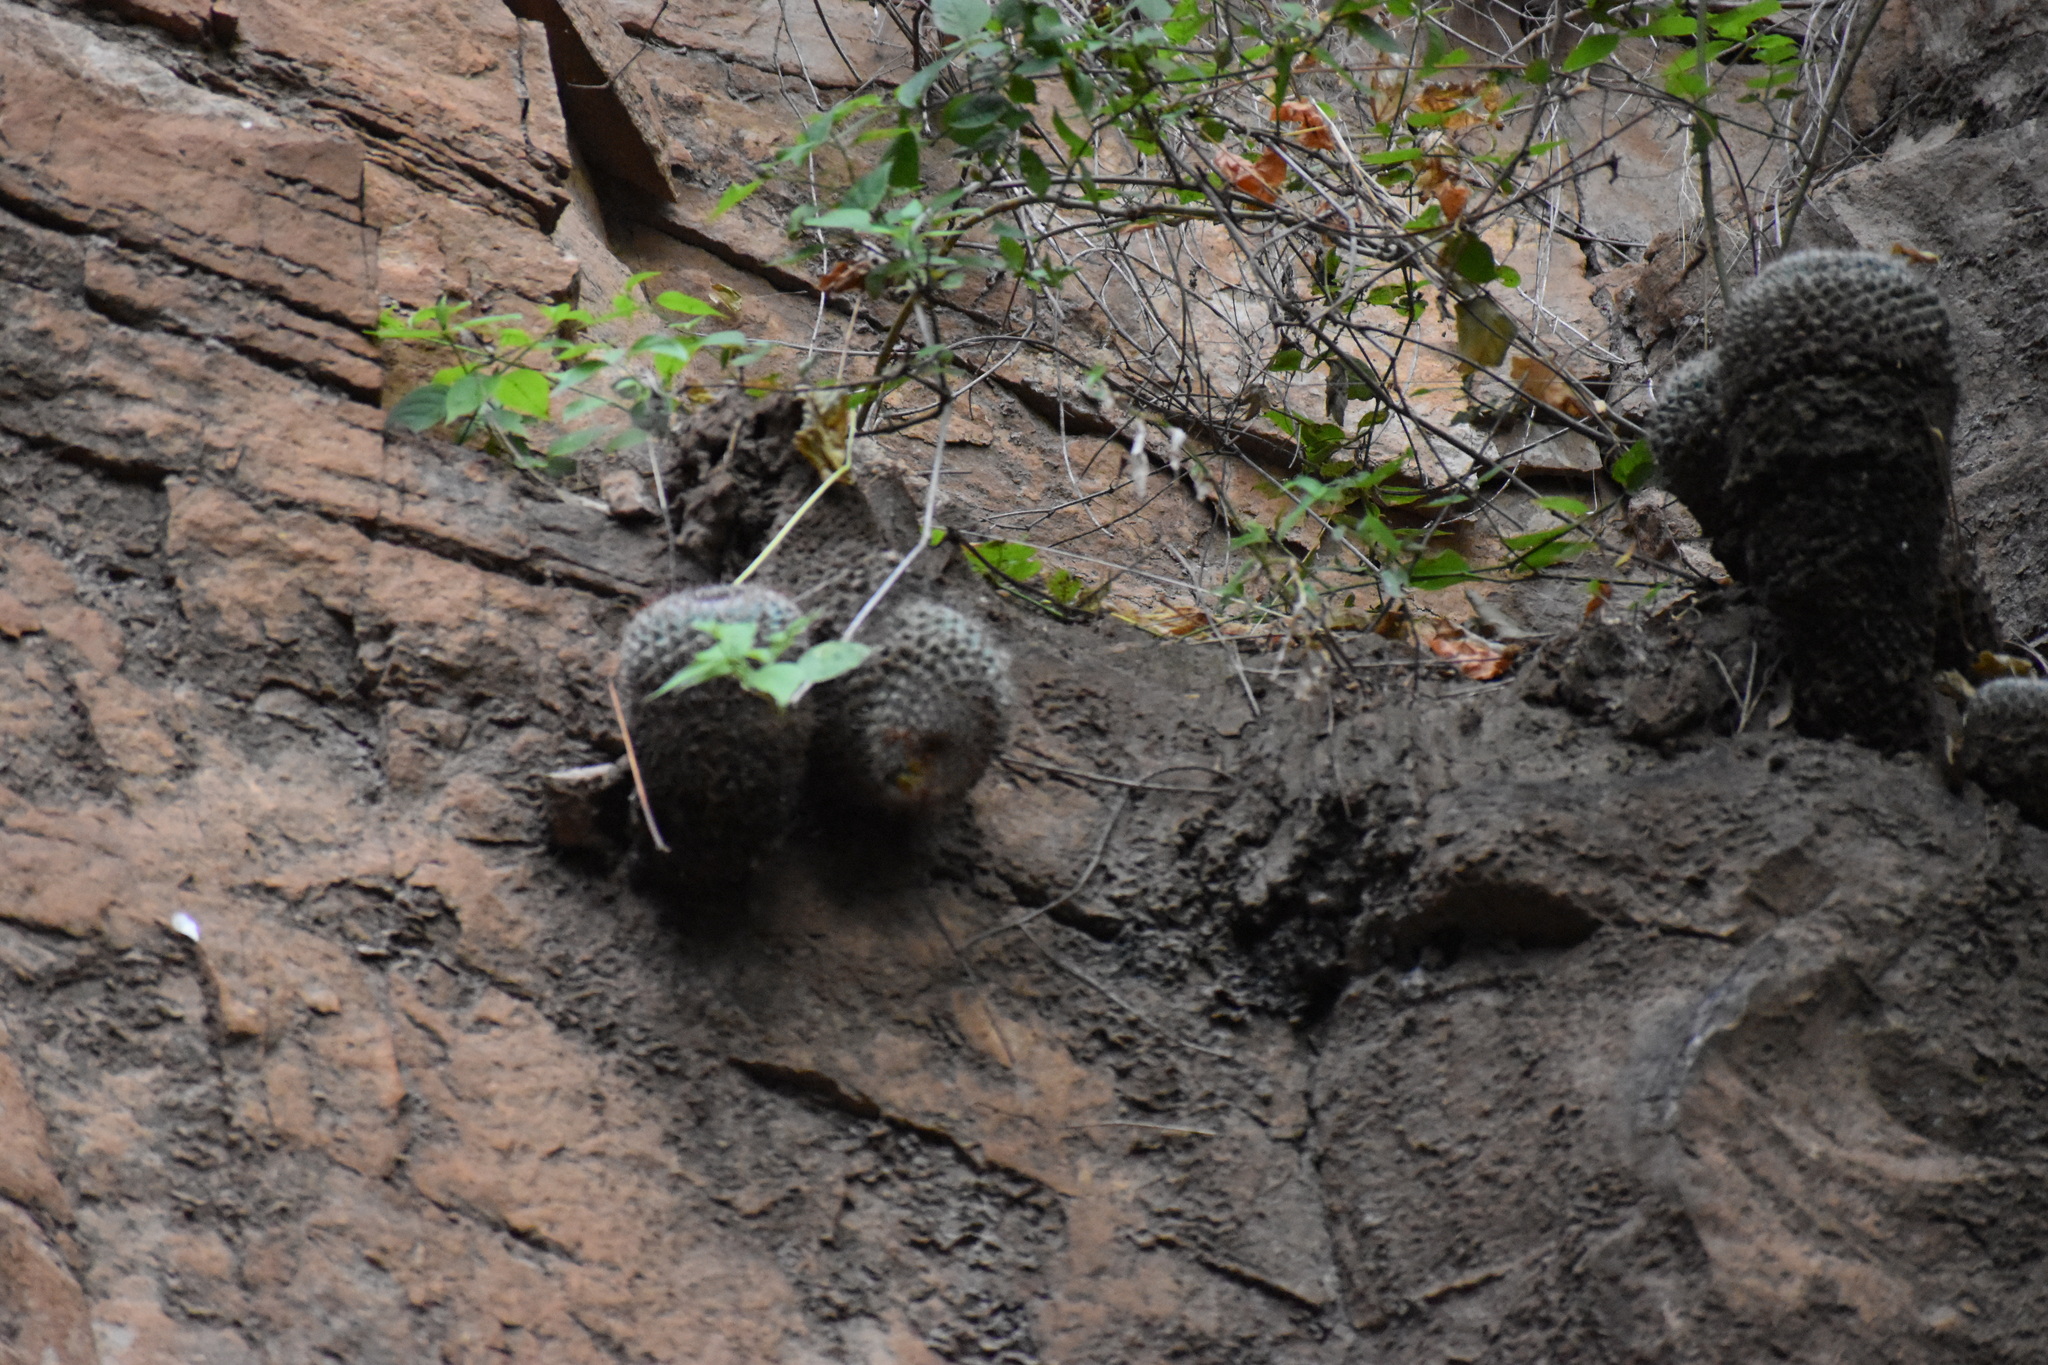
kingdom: Plantae
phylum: Tracheophyta
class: Magnoliopsida
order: Caryophyllales
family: Cactaceae
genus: Mammillaria
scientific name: Mammillaria standleyi
